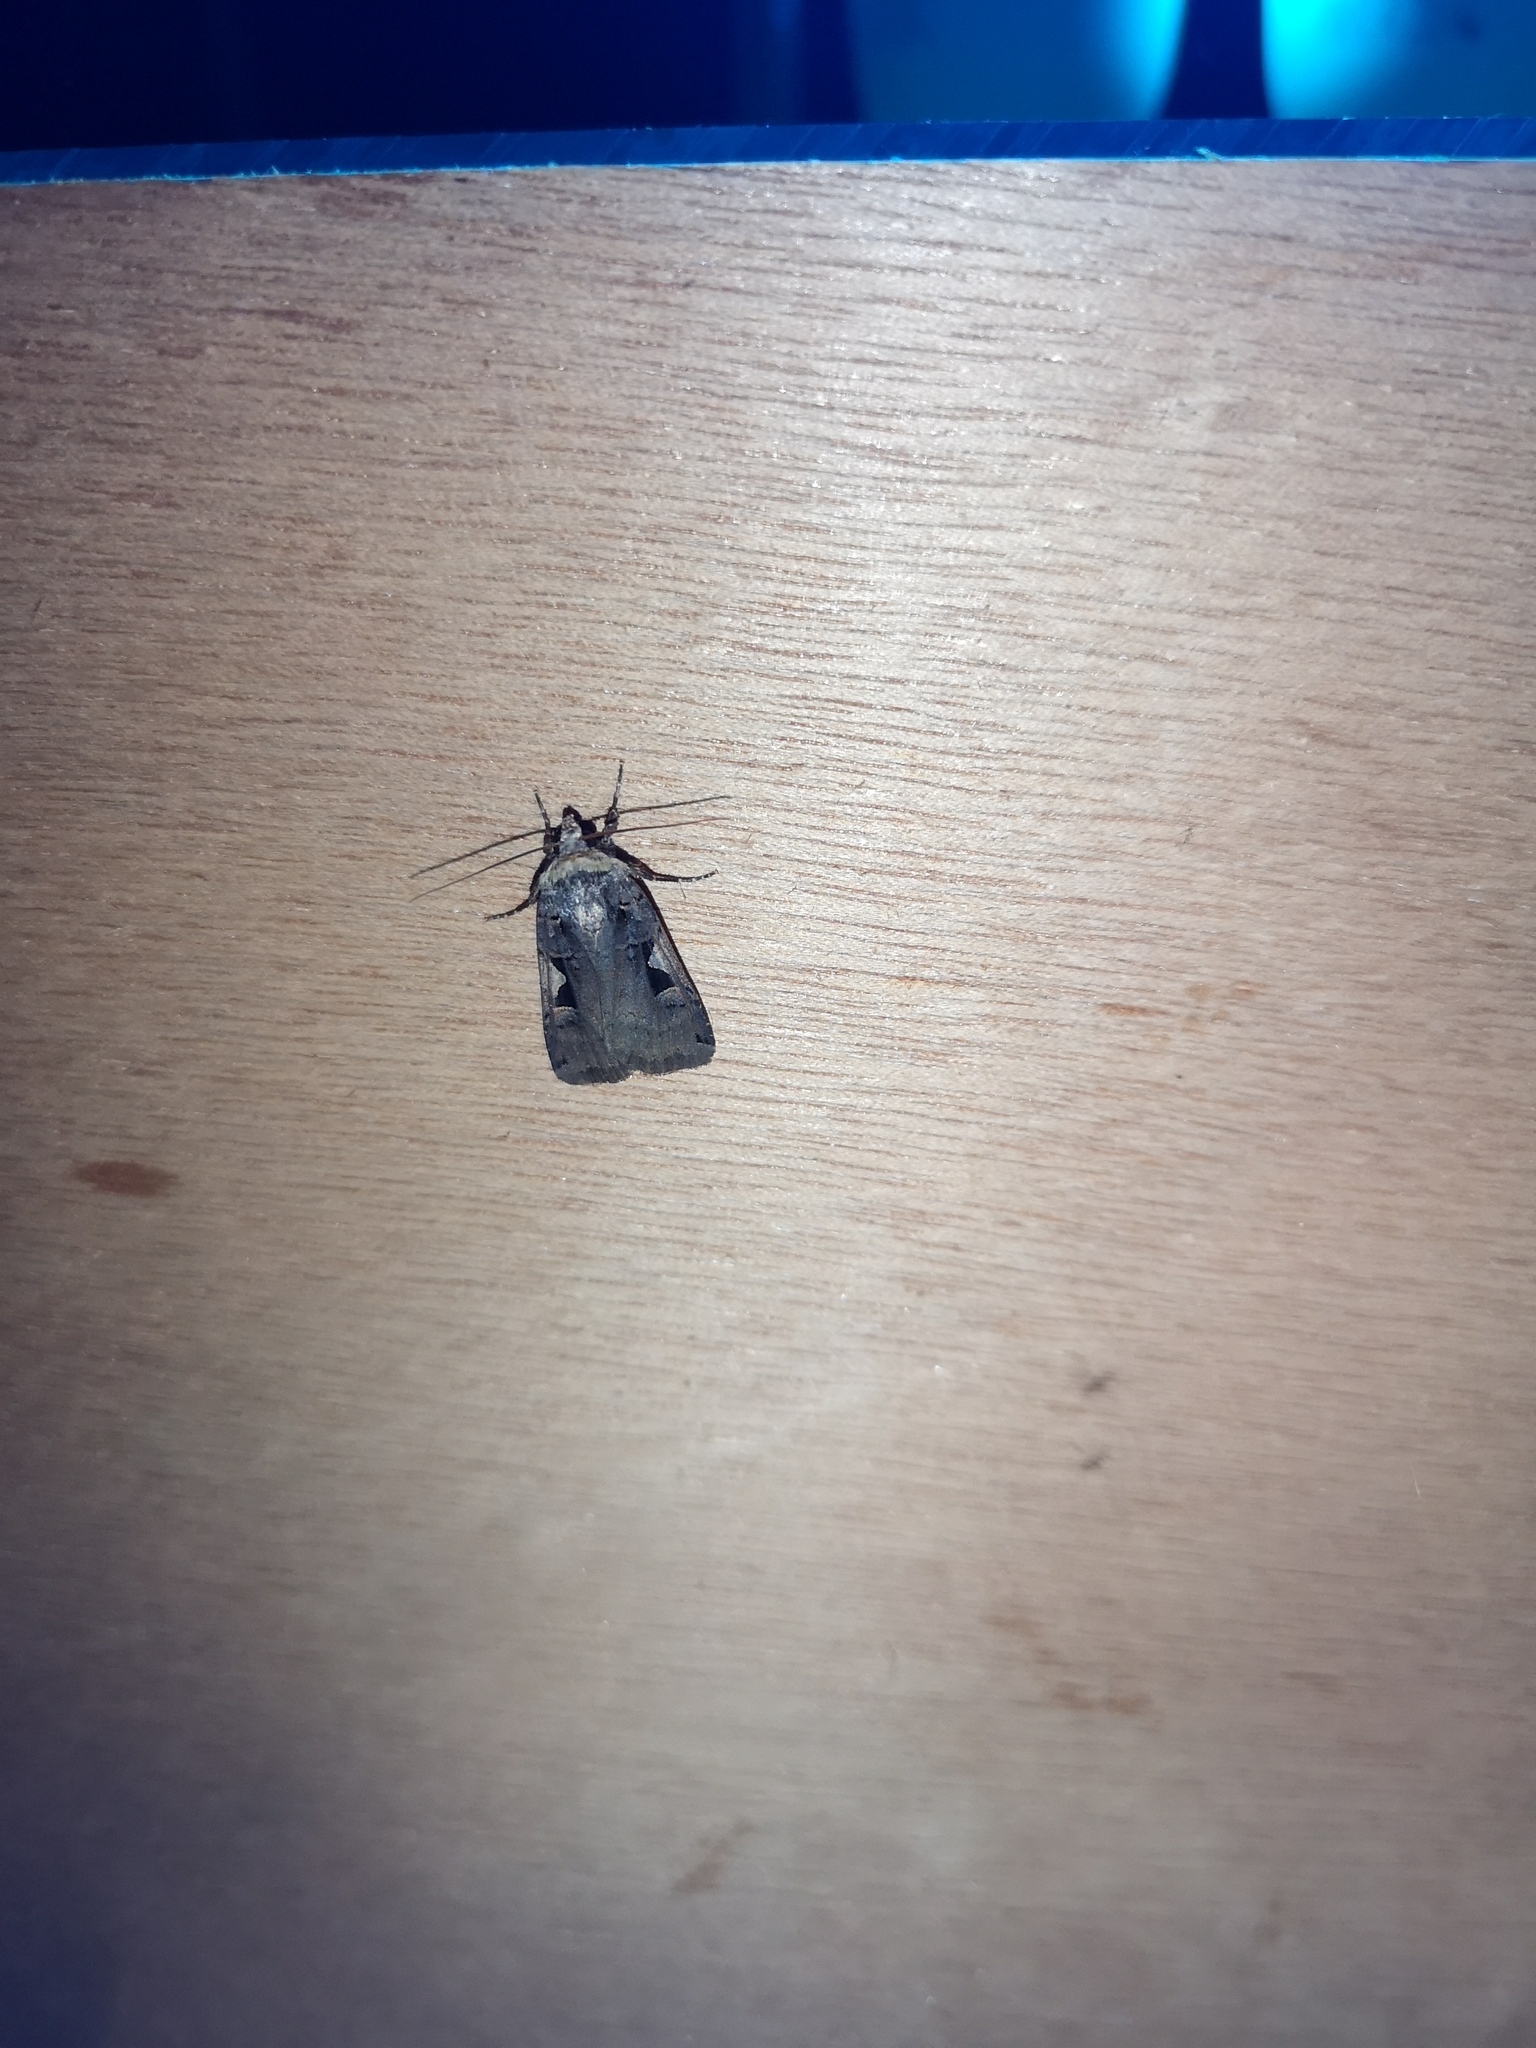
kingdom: Animalia
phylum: Arthropoda
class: Insecta
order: Lepidoptera
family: Noctuidae
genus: Xestia
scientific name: Xestia c-nigrum
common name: Setaceous hebrew character
